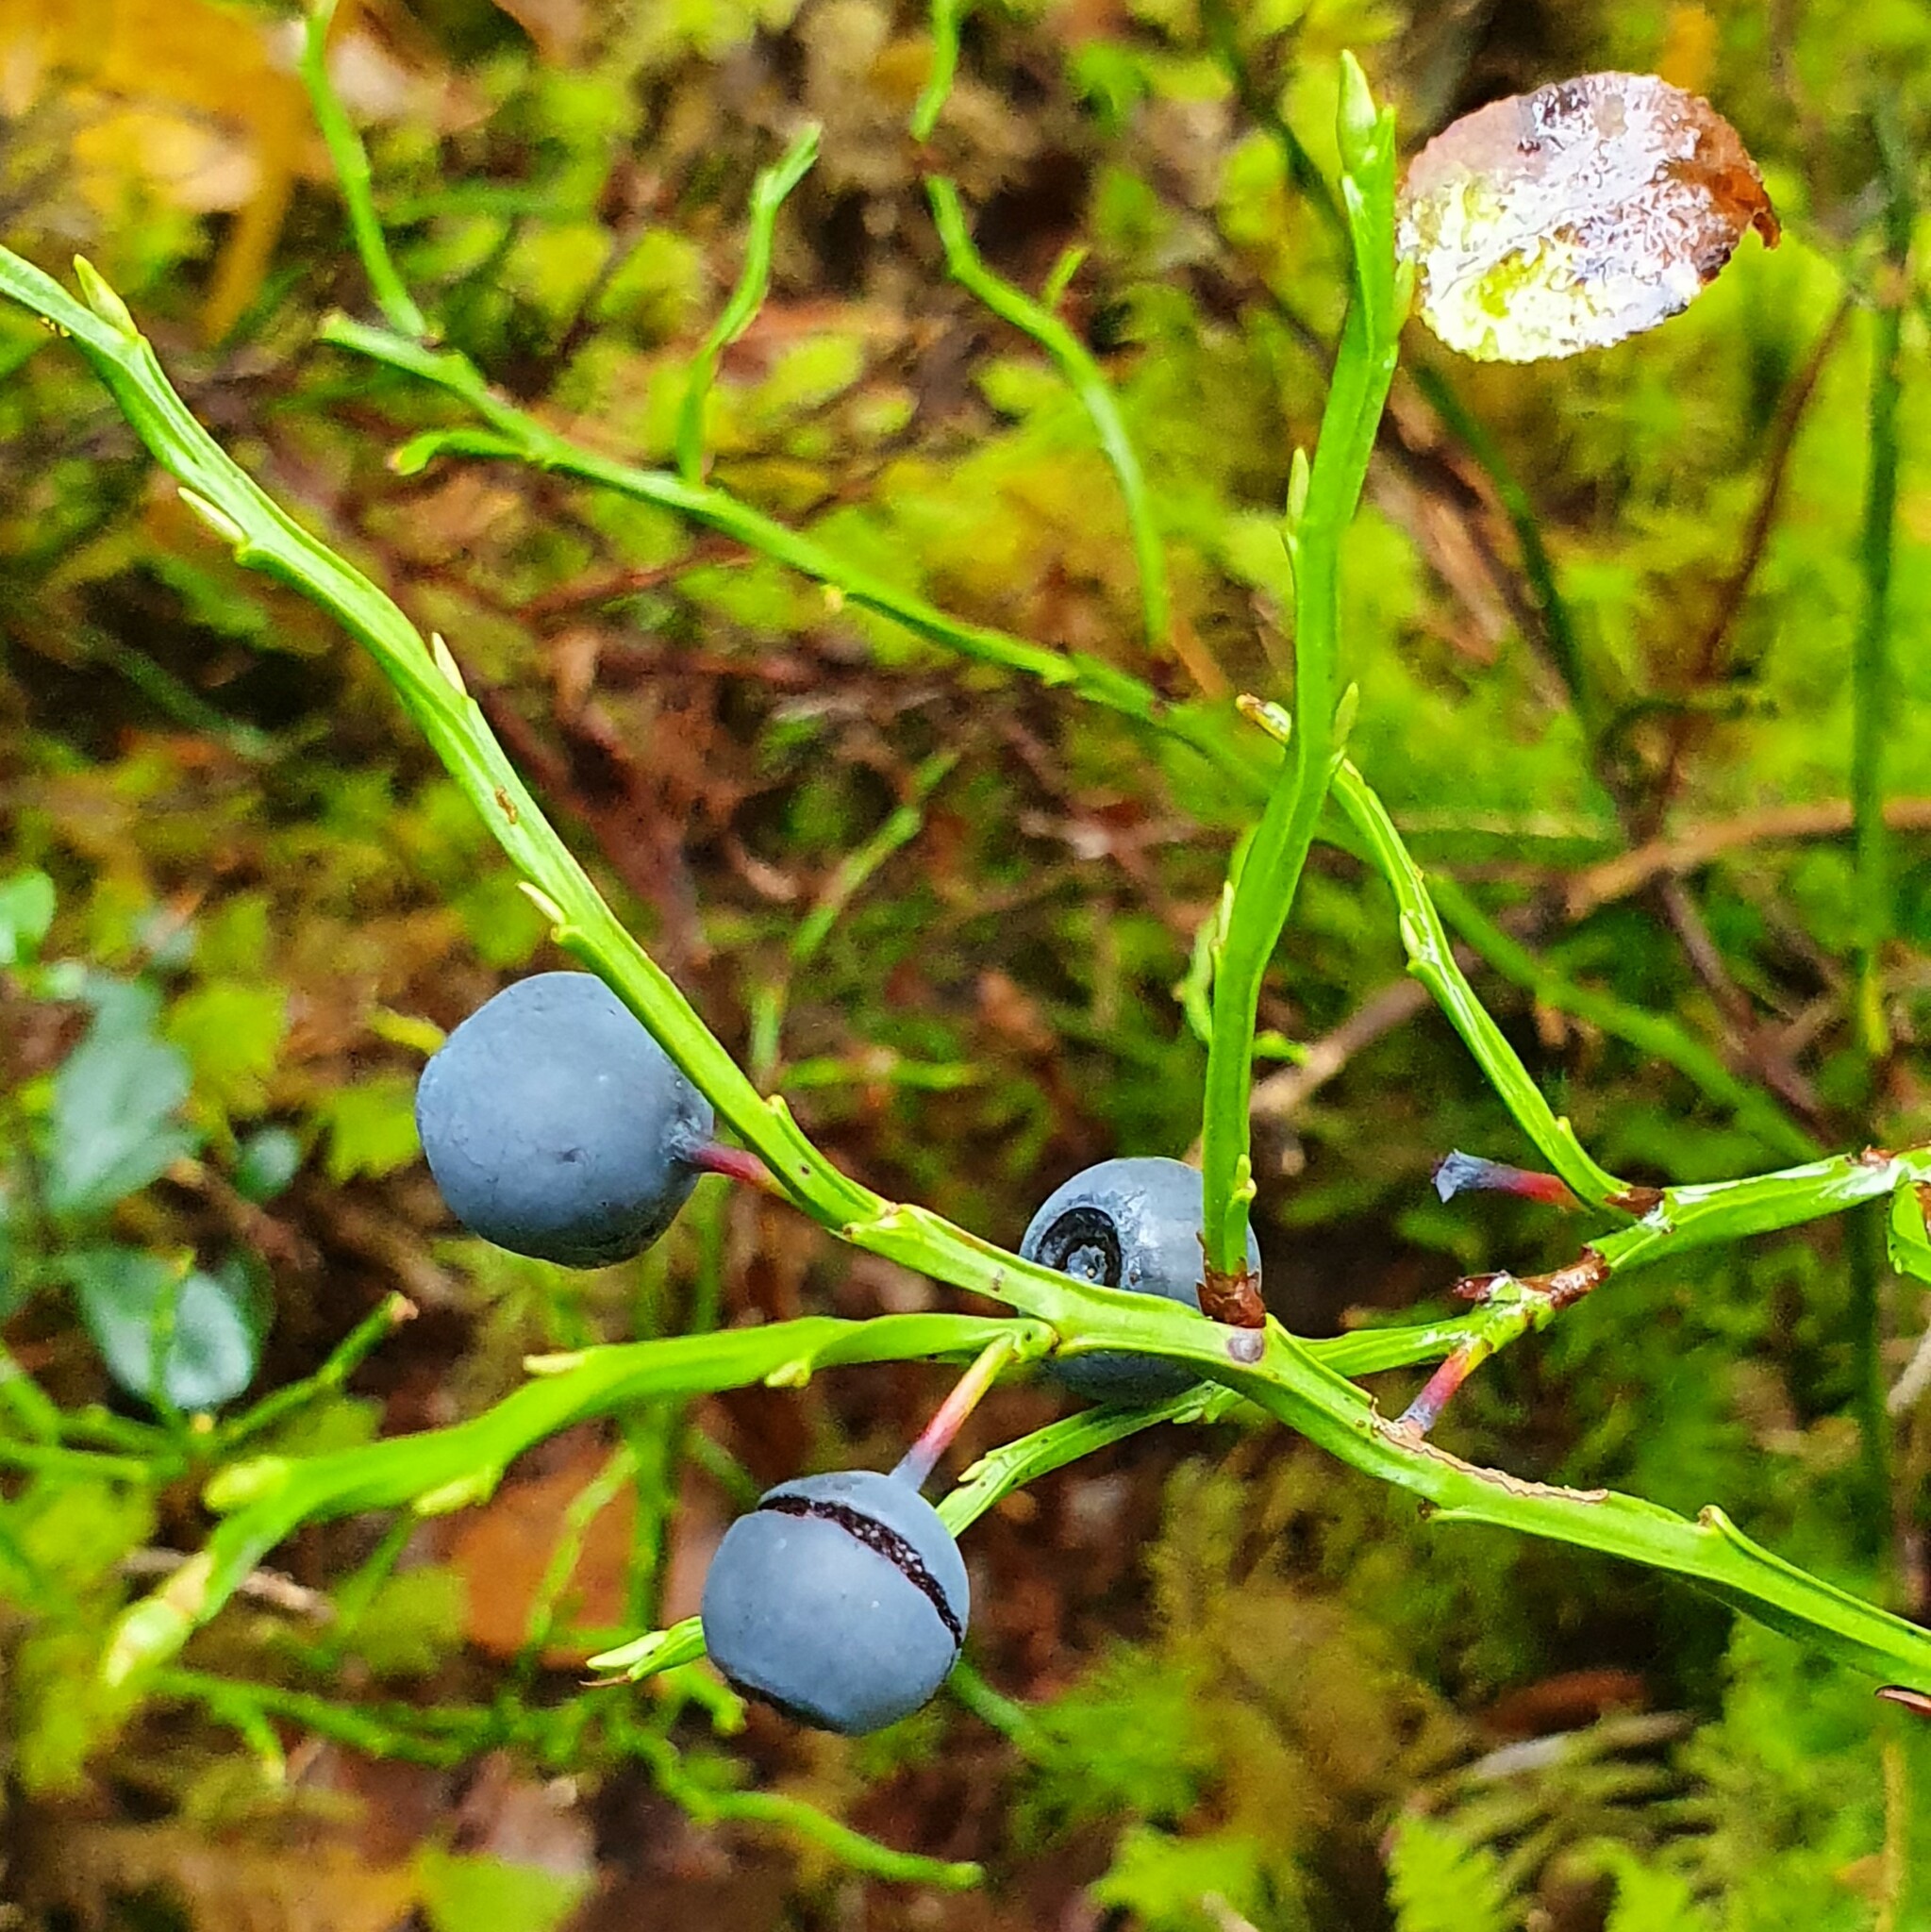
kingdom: Plantae
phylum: Tracheophyta
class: Magnoliopsida
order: Ericales
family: Ericaceae
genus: Vaccinium
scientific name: Vaccinium myrtillus
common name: Bilberry
